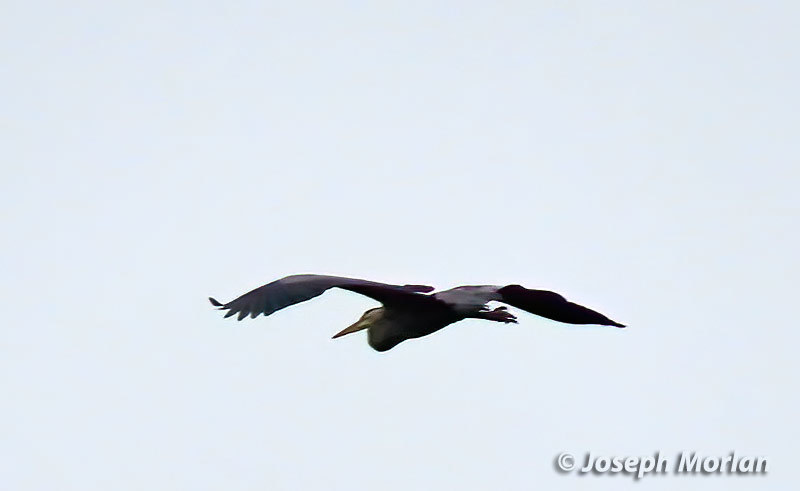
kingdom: Animalia
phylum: Chordata
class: Aves
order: Pelecaniformes
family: Ardeidae
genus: Ardea
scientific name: Ardea herodias
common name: Great blue heron
